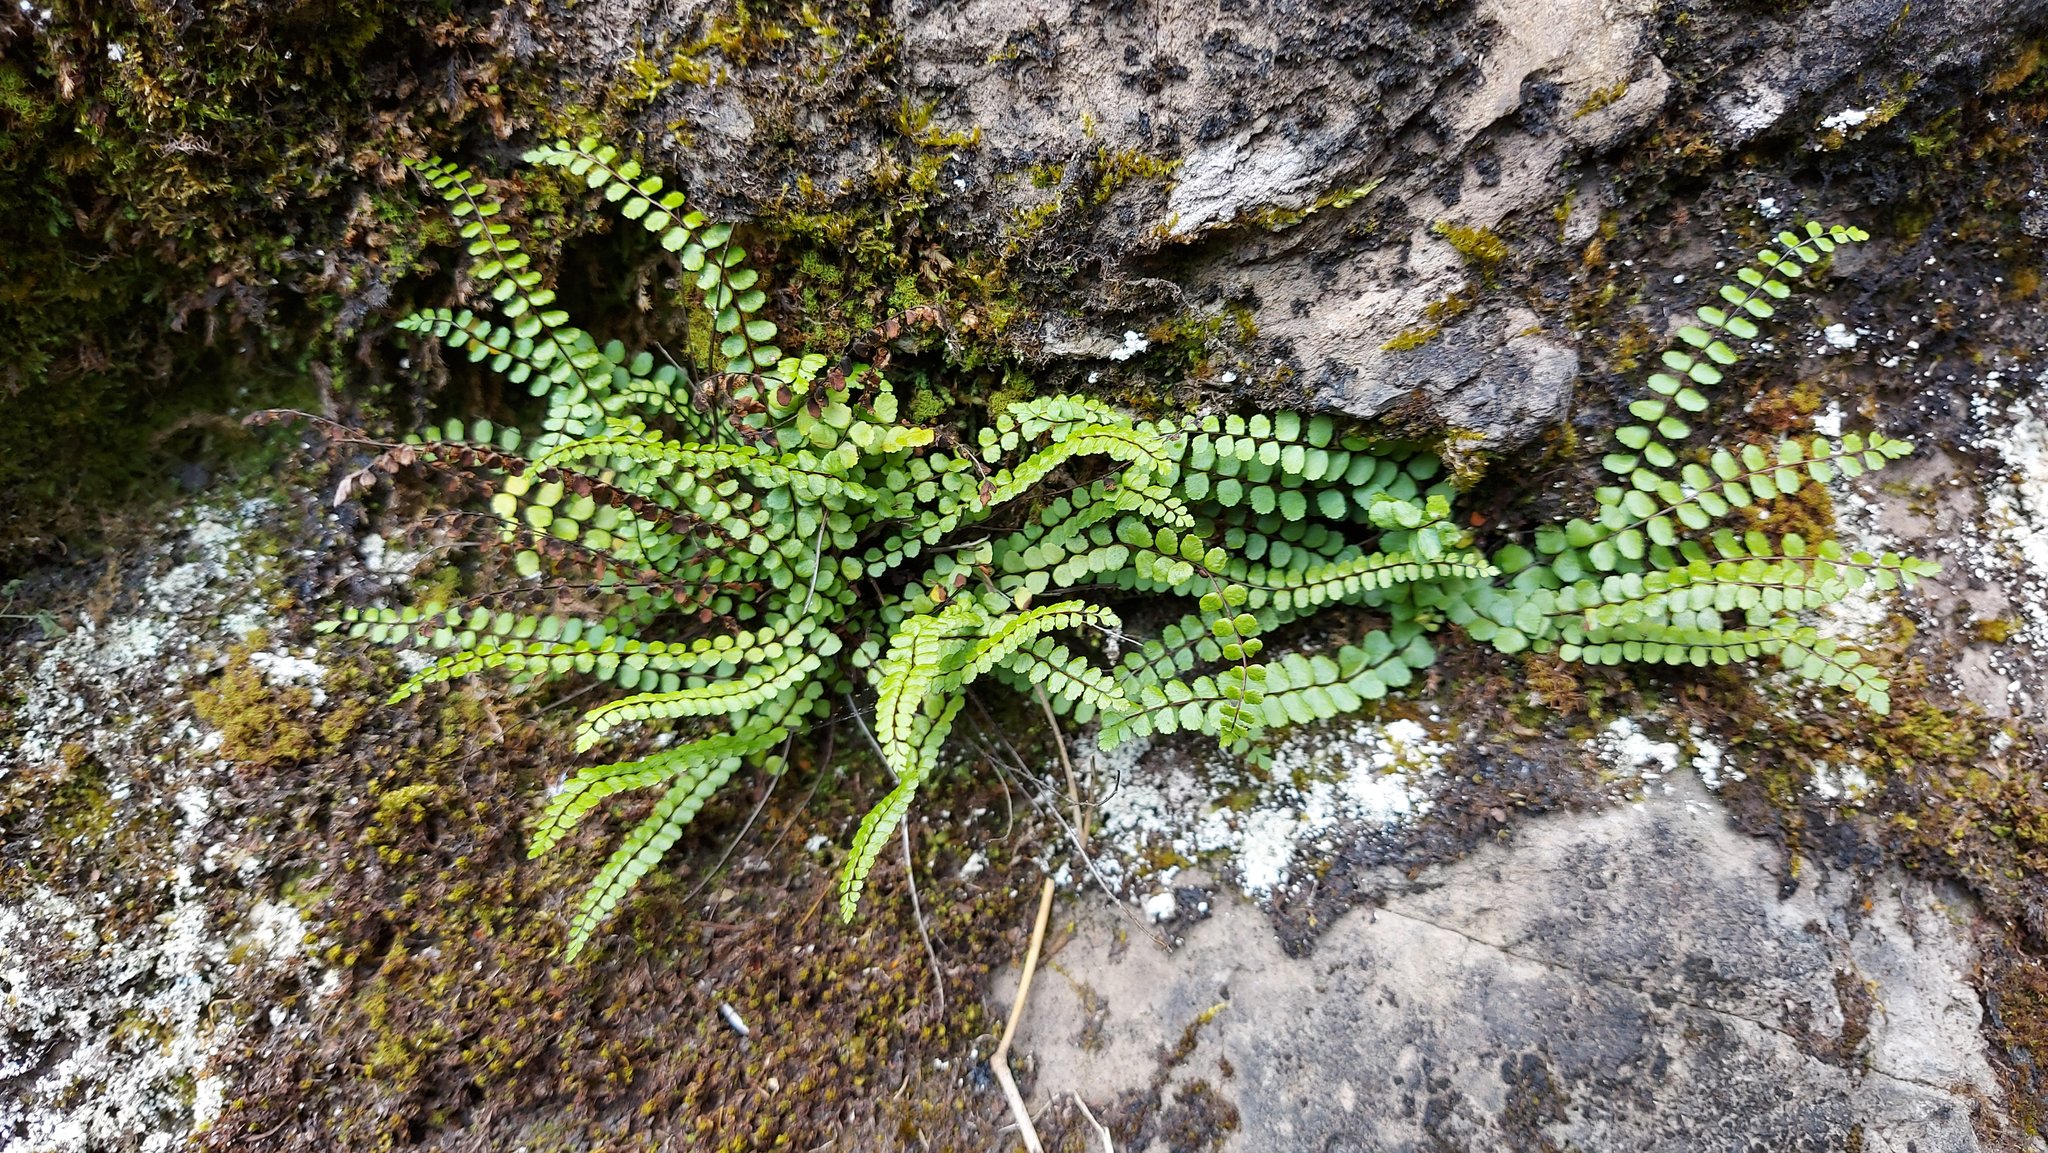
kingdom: Plantae
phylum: Tracheophyta
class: Polypodiopsida
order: Polypodiales
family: Aspleniaceae
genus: Asplenium
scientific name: Asplenium trichomanes
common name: Maidenhair spleenwort
